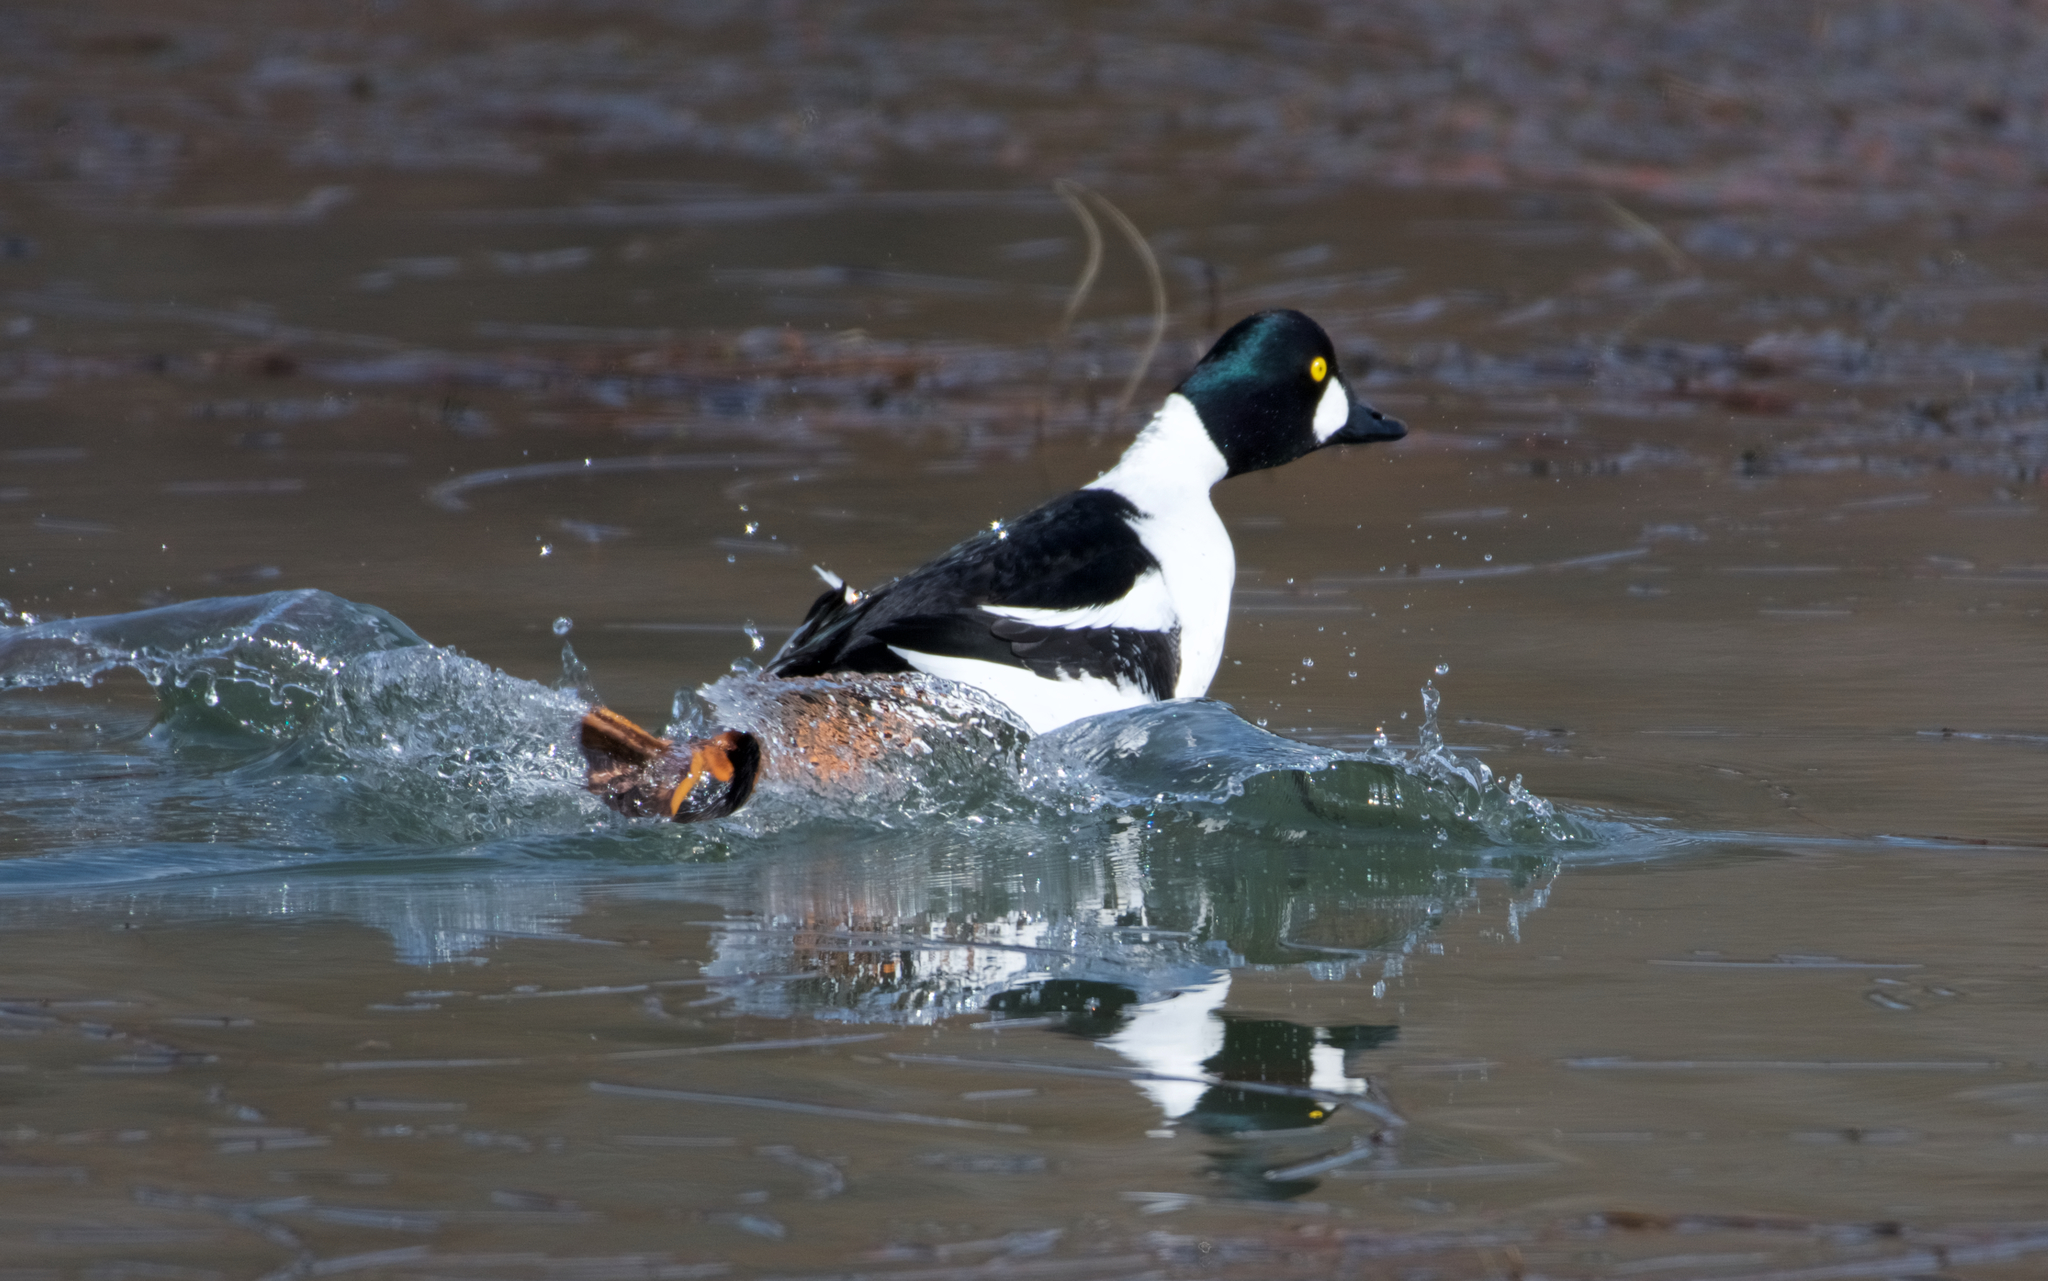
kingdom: Animalia
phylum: Chordata
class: Aves
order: Anseriformes
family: Anatidae
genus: Bucephala
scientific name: Bucephala clangula
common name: Common goldeneye
